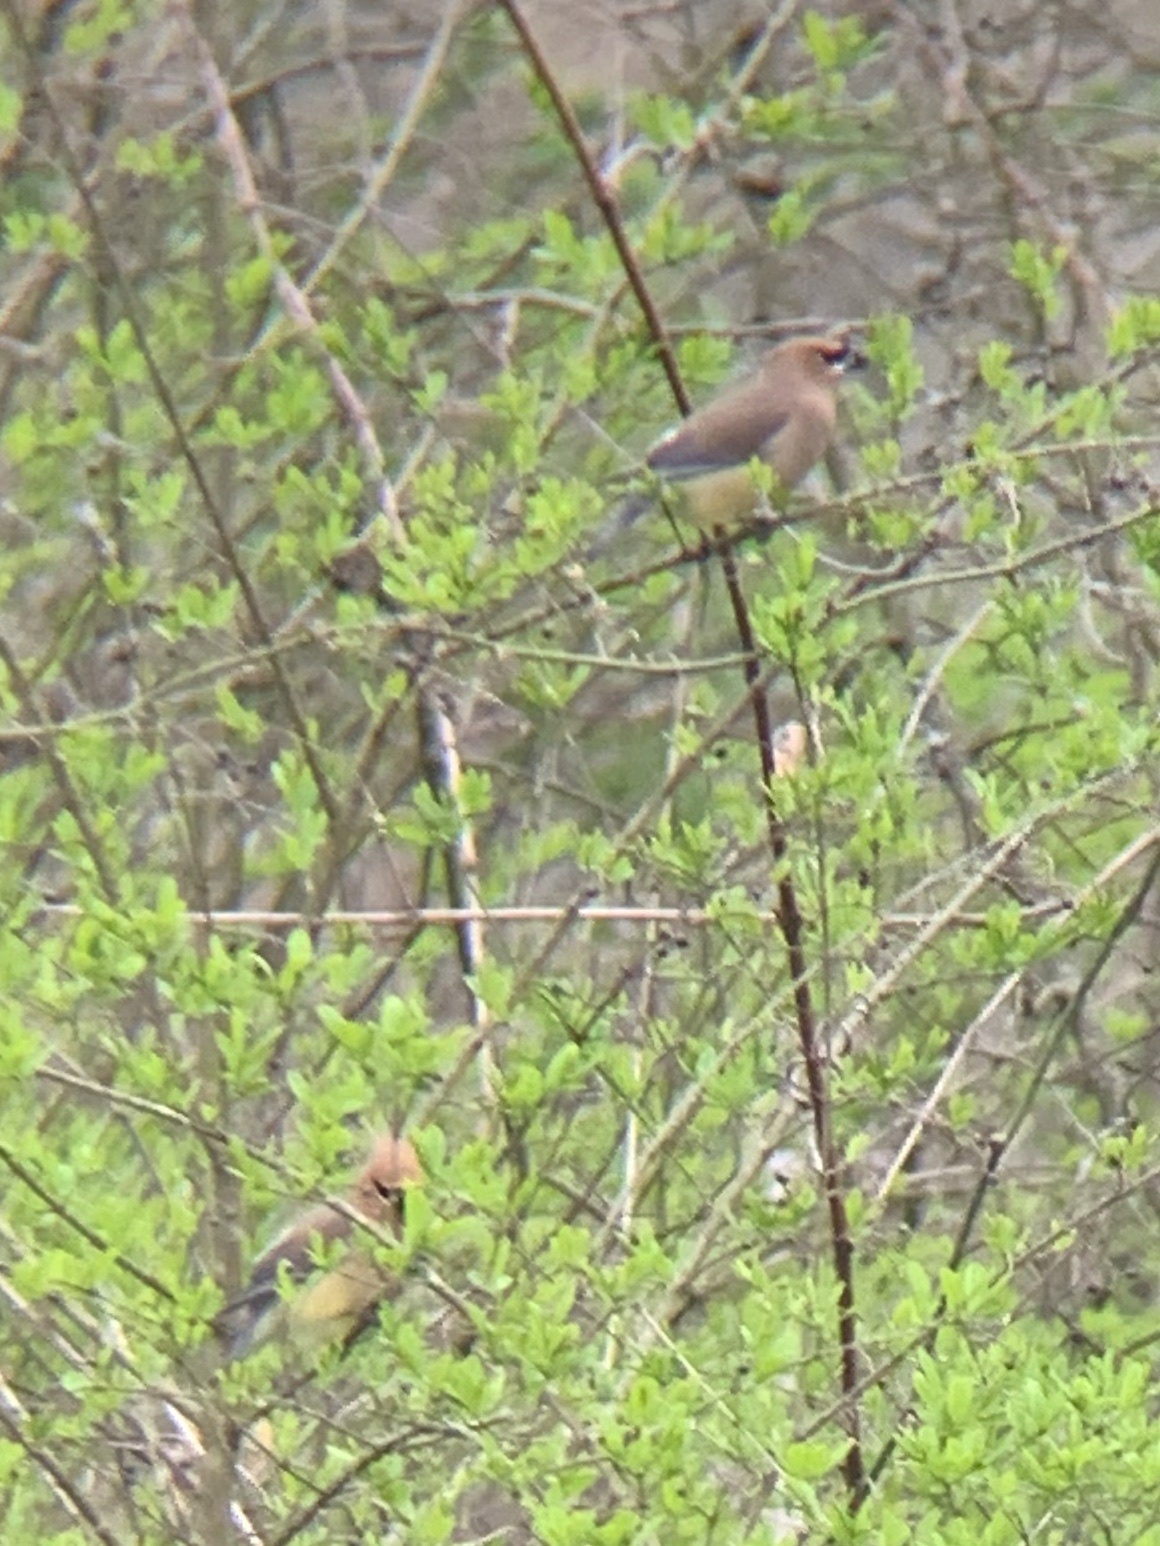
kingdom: Animalia
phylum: Chordata
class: Aves
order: Passeriformes
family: Bombycillidae
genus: Bombycilla
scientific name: Bombycilla cedrorum
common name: Cedar waxwing
